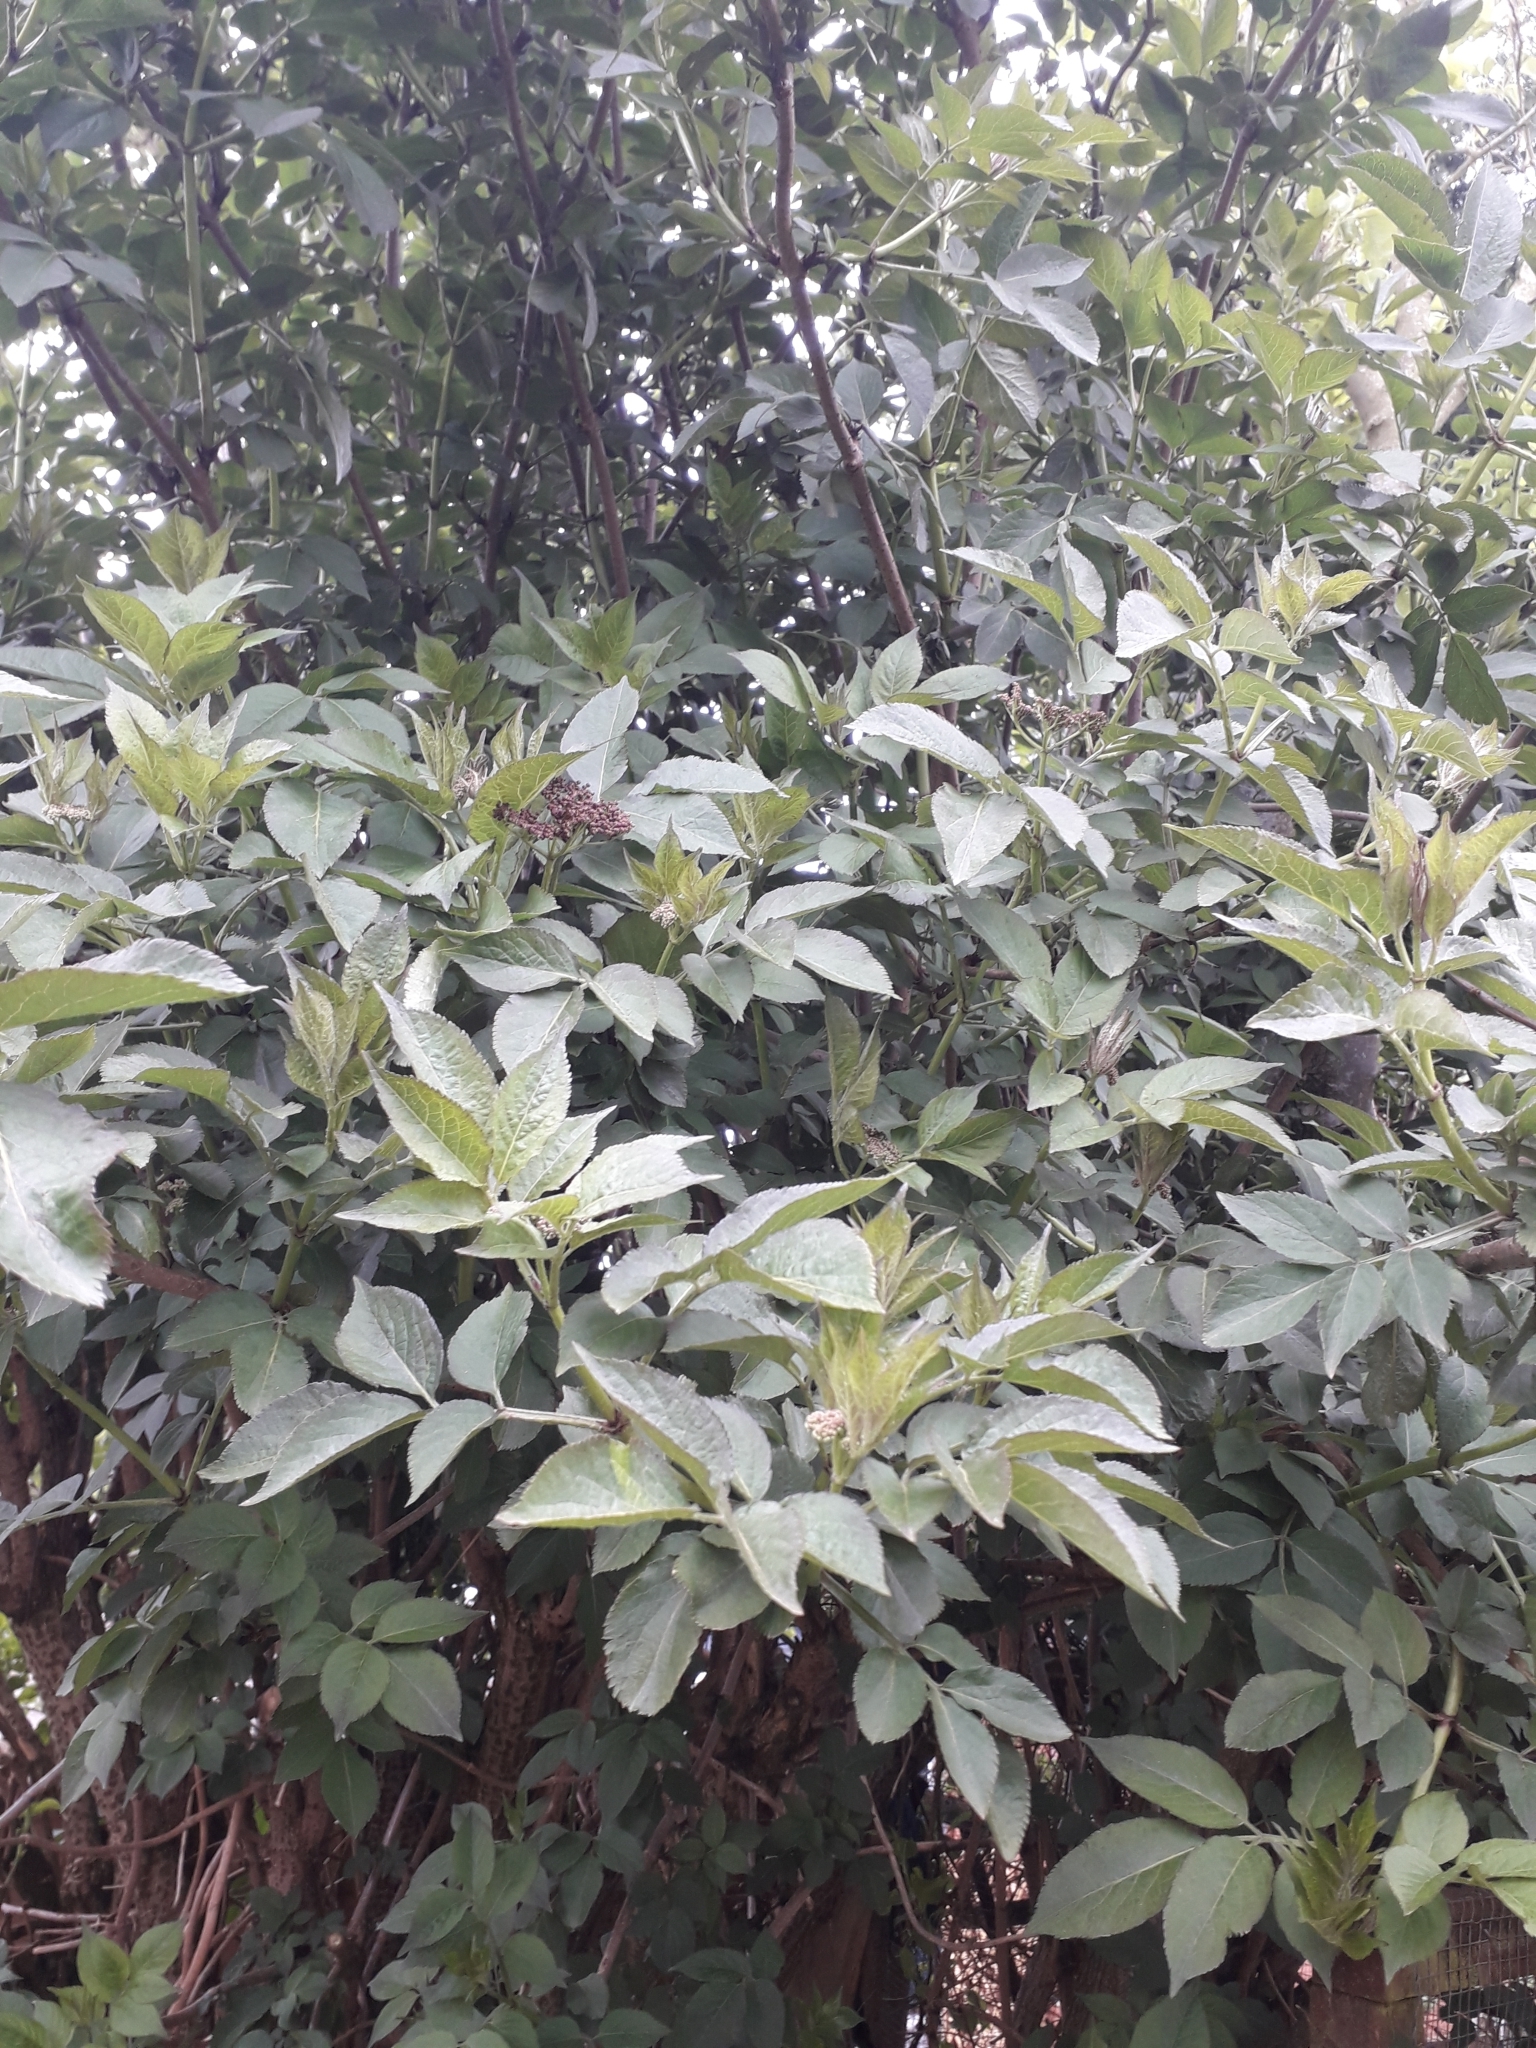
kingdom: Plantae
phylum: Tracheophyta
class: Magnoliopsida
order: Dipsacales
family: Viburnaceae
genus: Sambucus
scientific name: Sambucus nigra
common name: Elder
